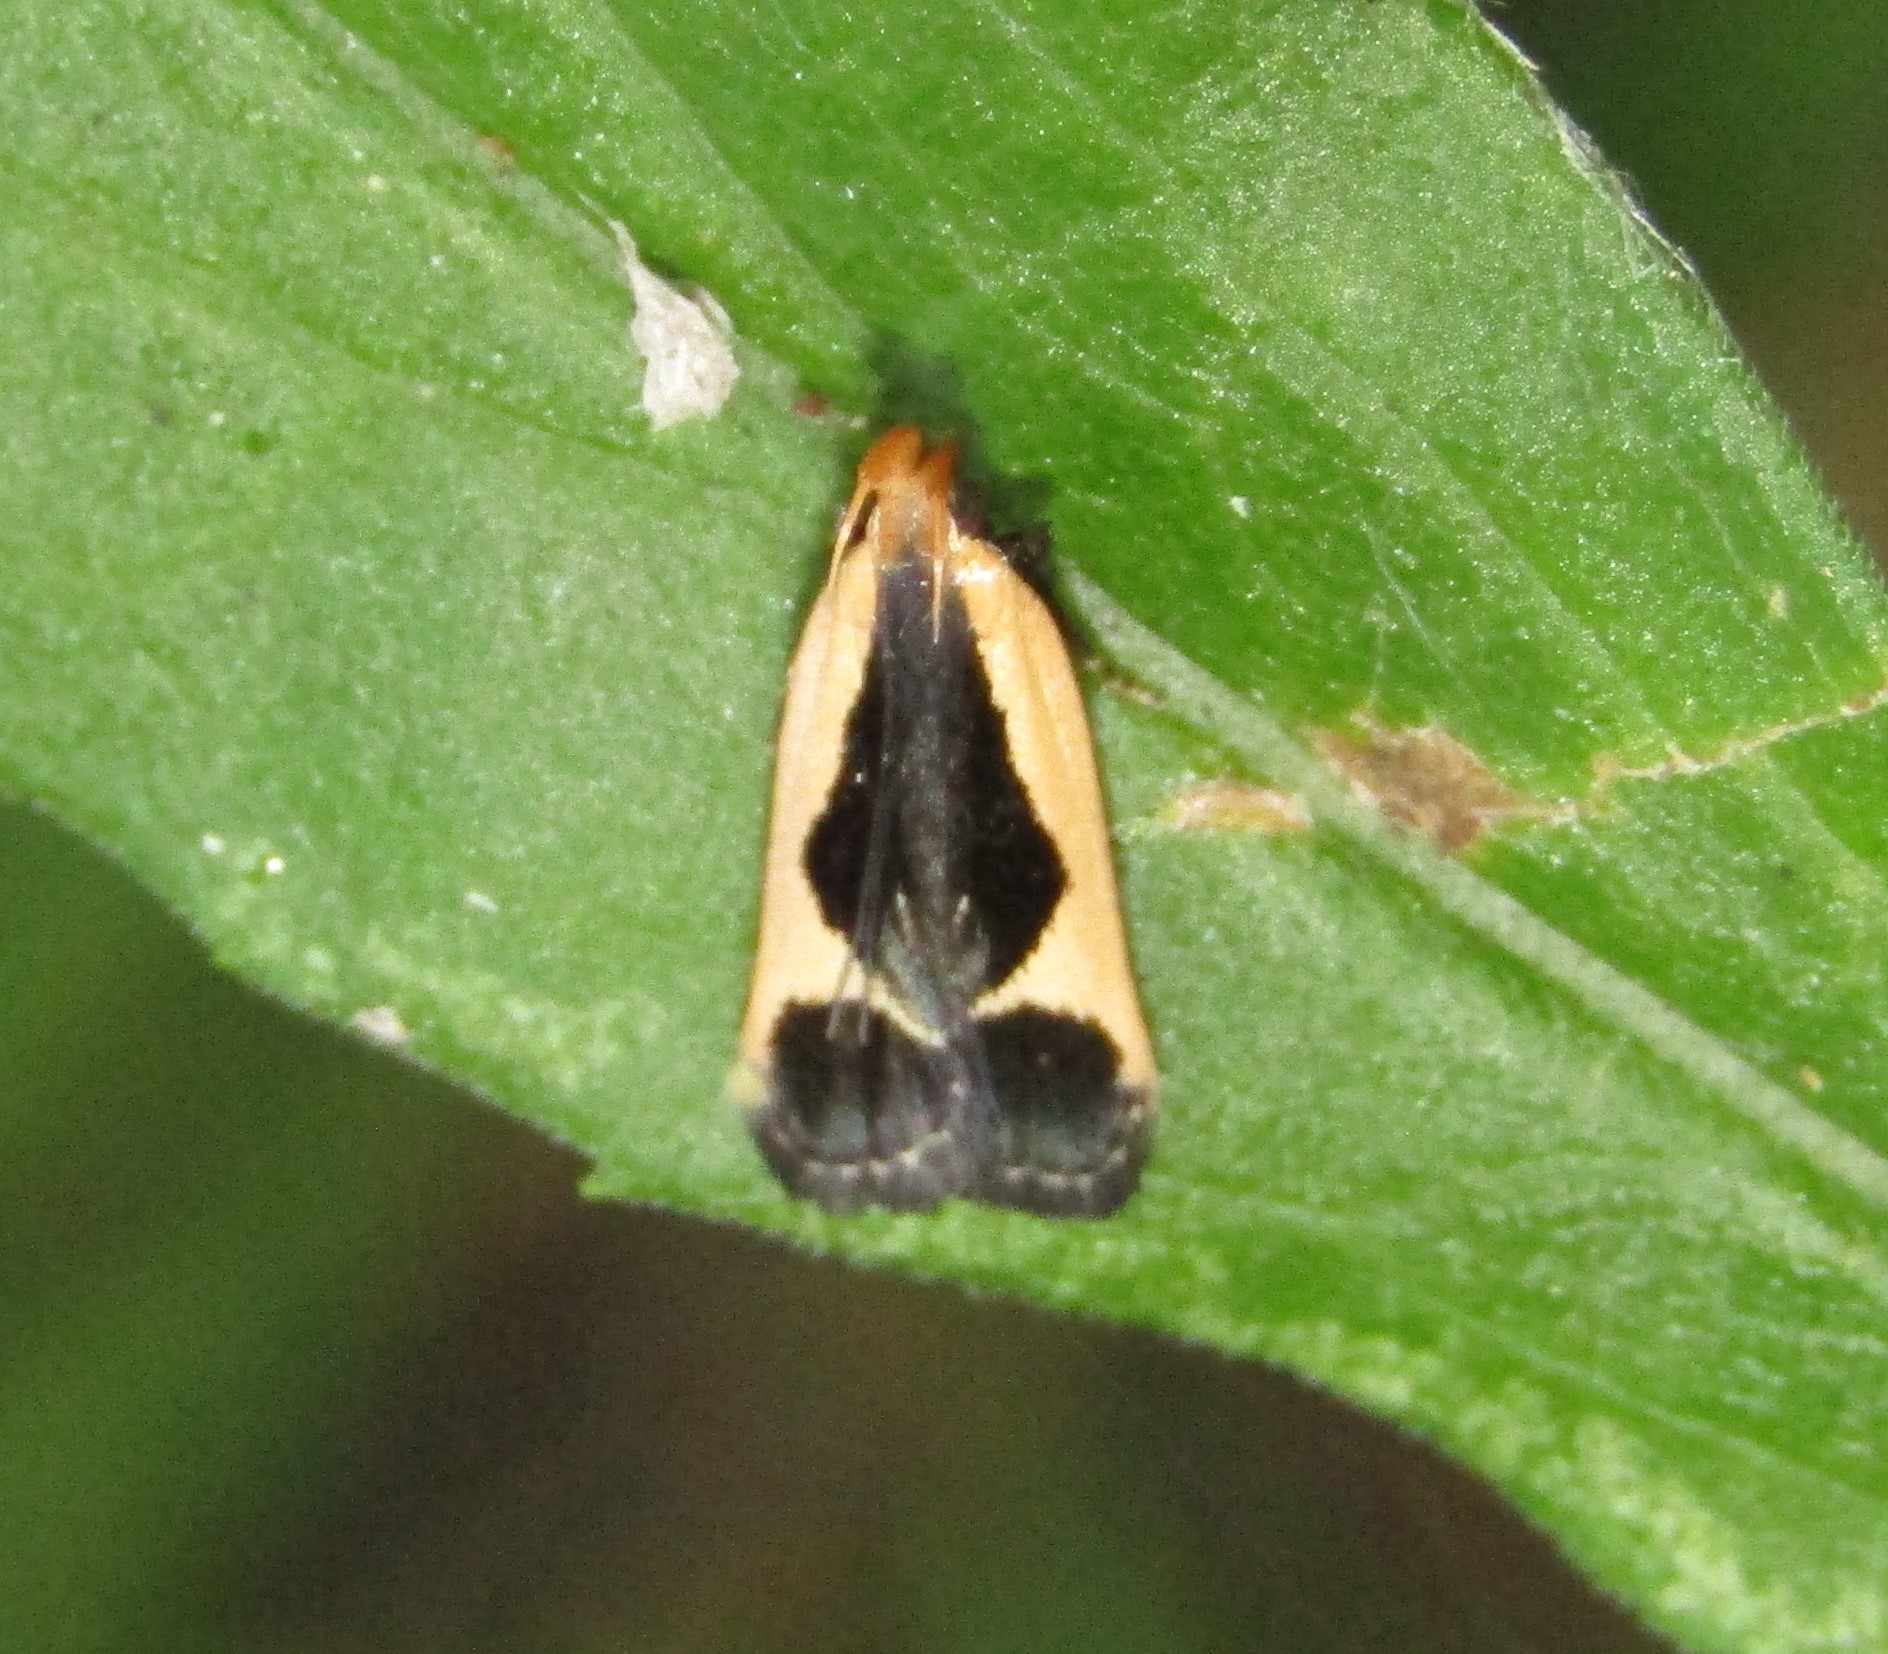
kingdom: Animalia
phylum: Arthropoda
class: Insecta
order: Lepidoptera
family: Gelechiidae
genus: Dichomeris
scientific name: Dichomeris flavocostella
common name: Cream-edged dichomeris moth
